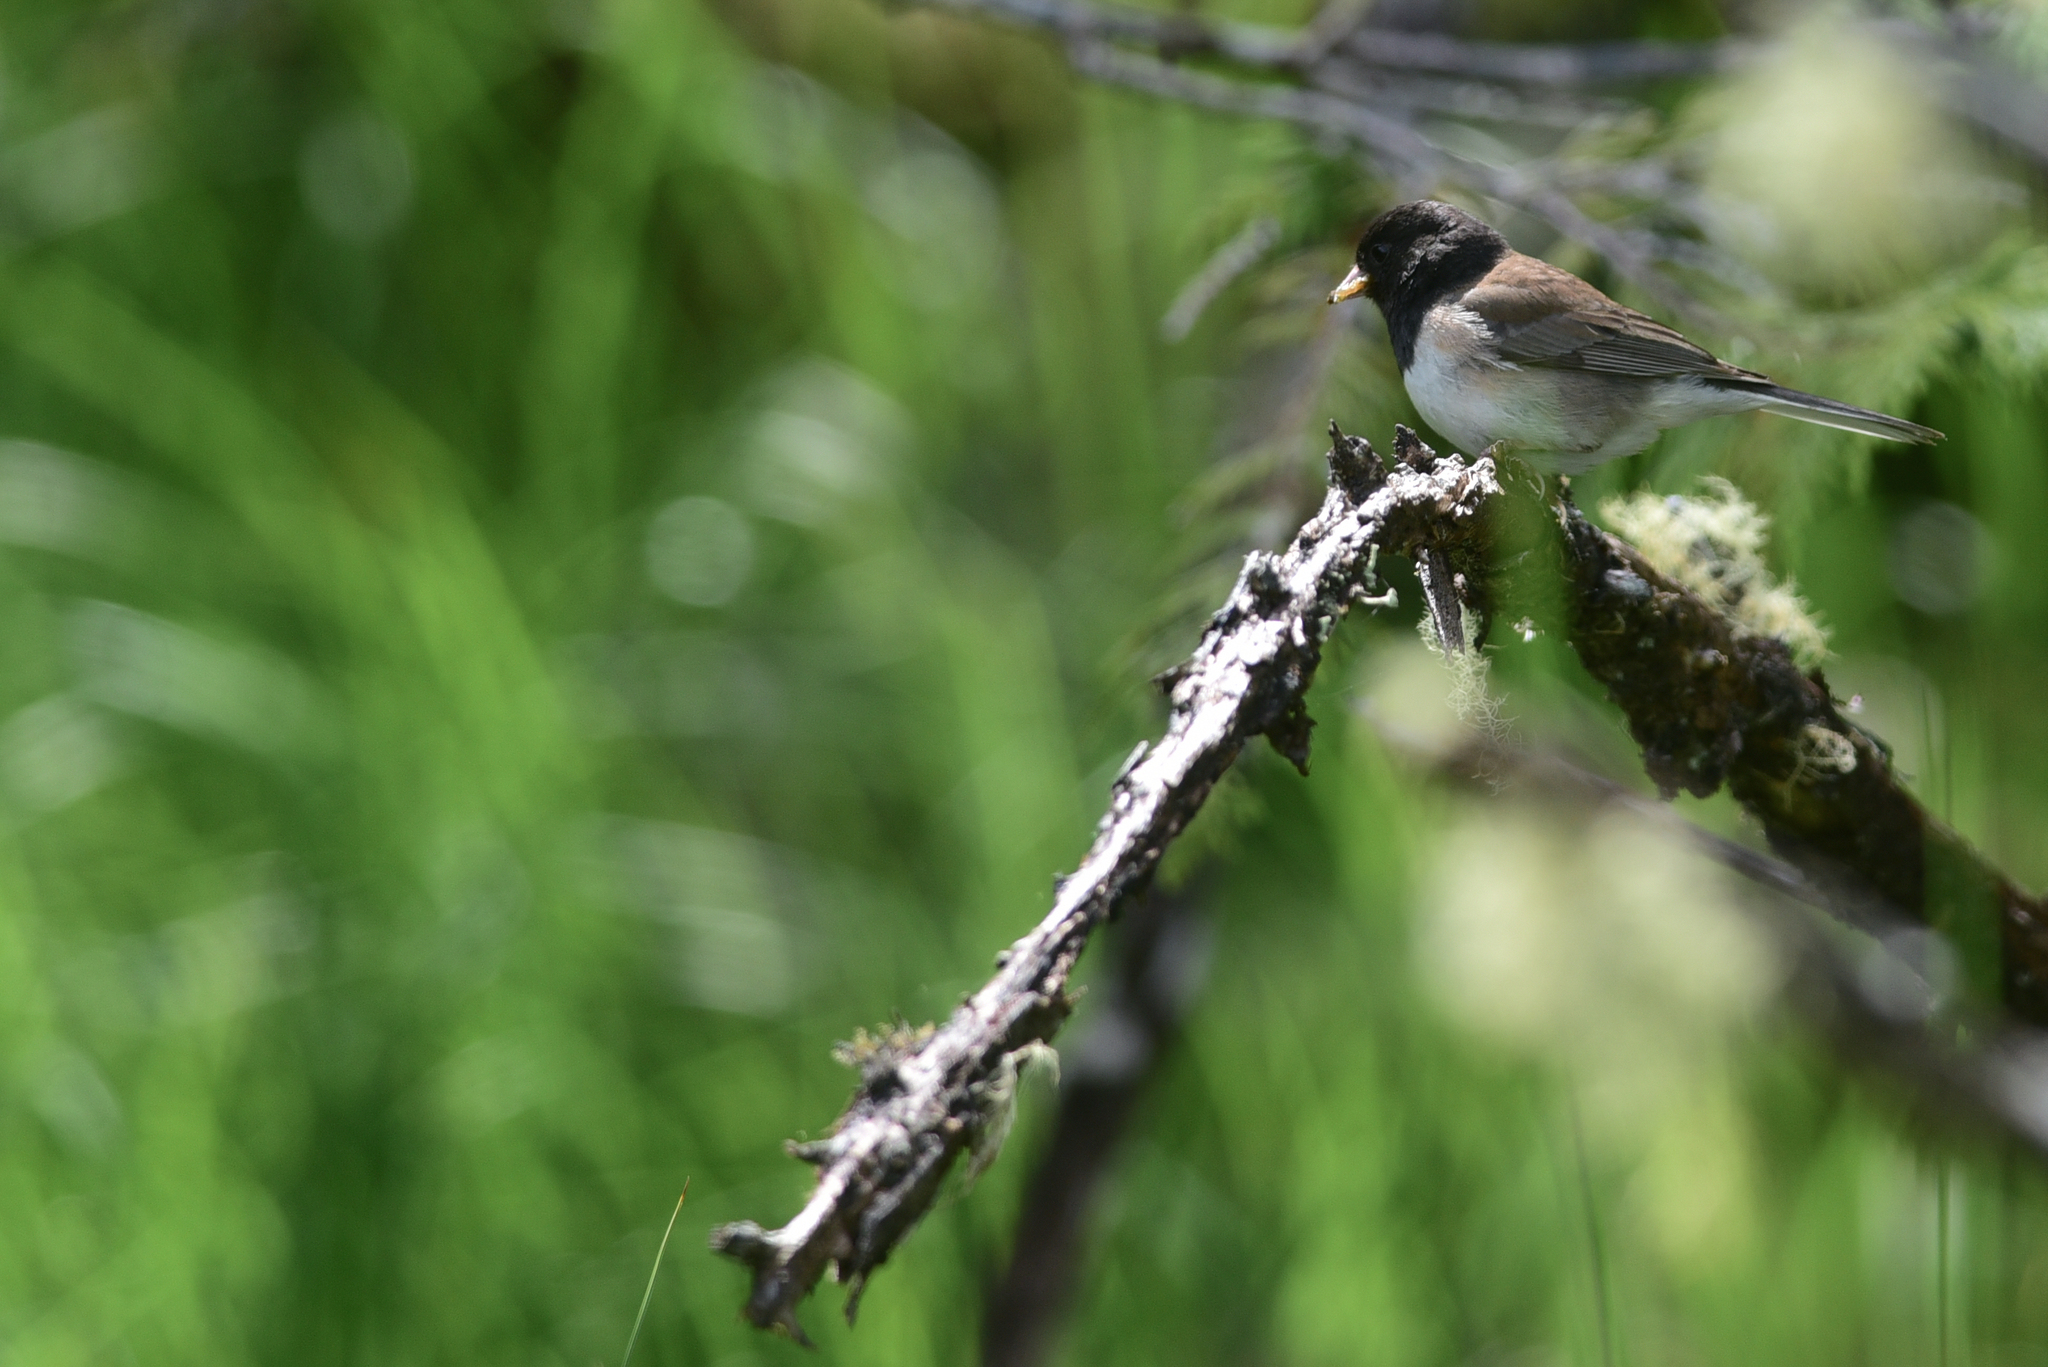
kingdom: Animalia
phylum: Chordata
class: Aves
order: Passeriformes
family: Passerellidae
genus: Junco
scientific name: Junco hyemalis
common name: Dark-eyed junco
